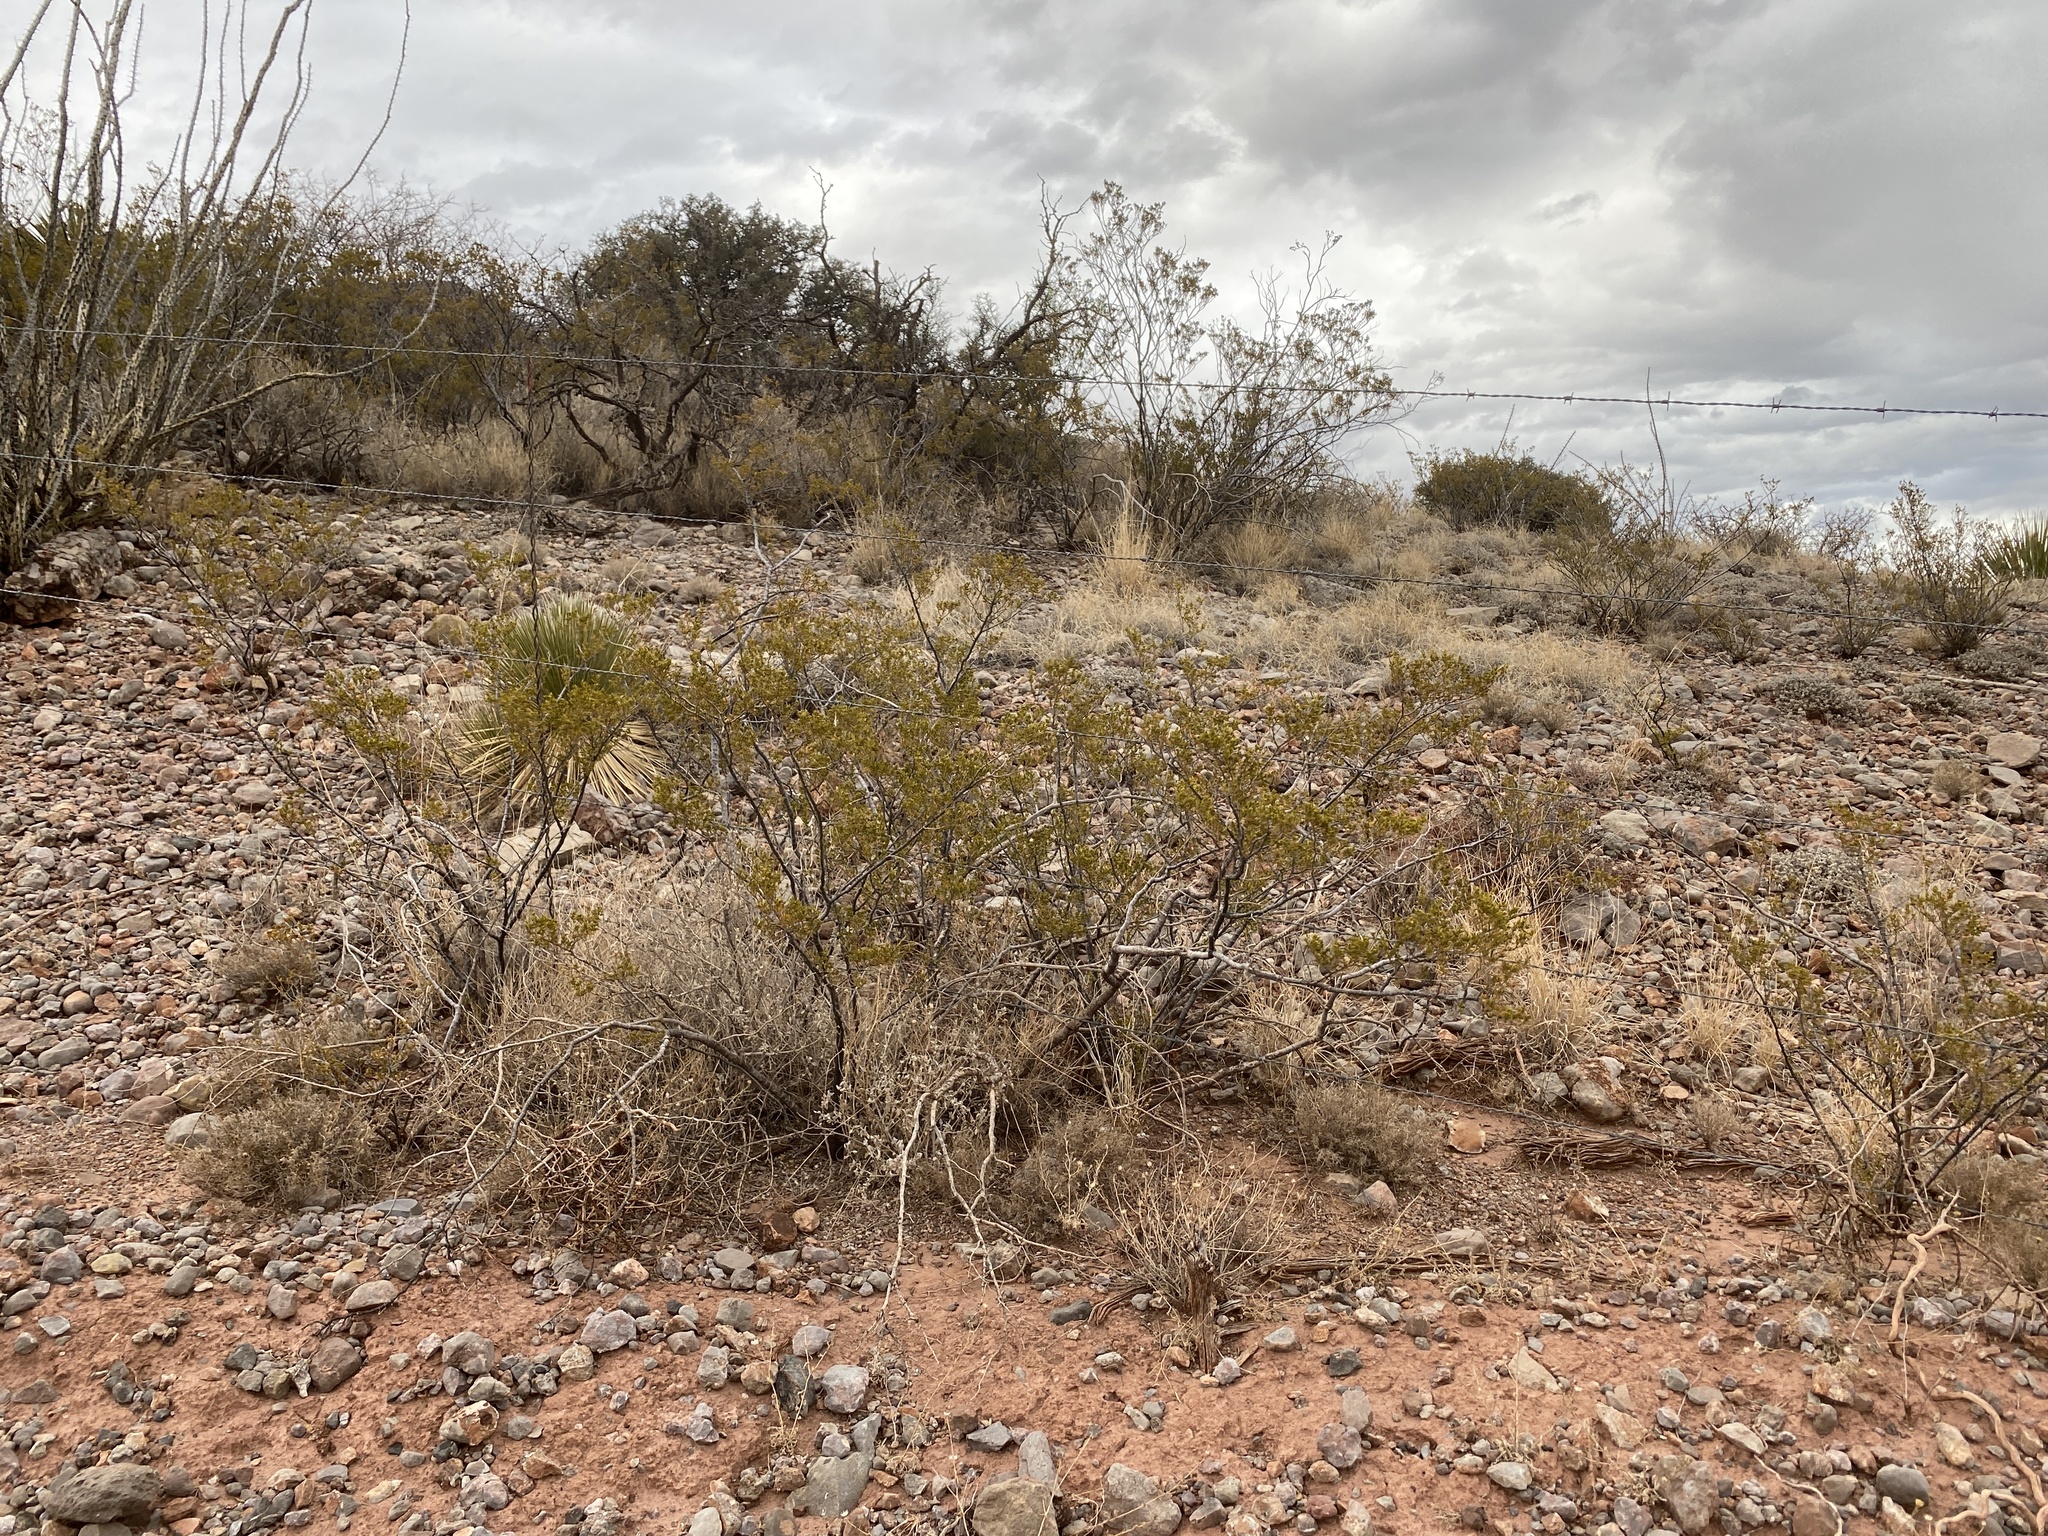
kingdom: Plantae
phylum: Tracheophyta
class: Magnoliopsida
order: Zygophyllales
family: Zygophyllaceae
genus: Larrea
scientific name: Larrea tridentata
